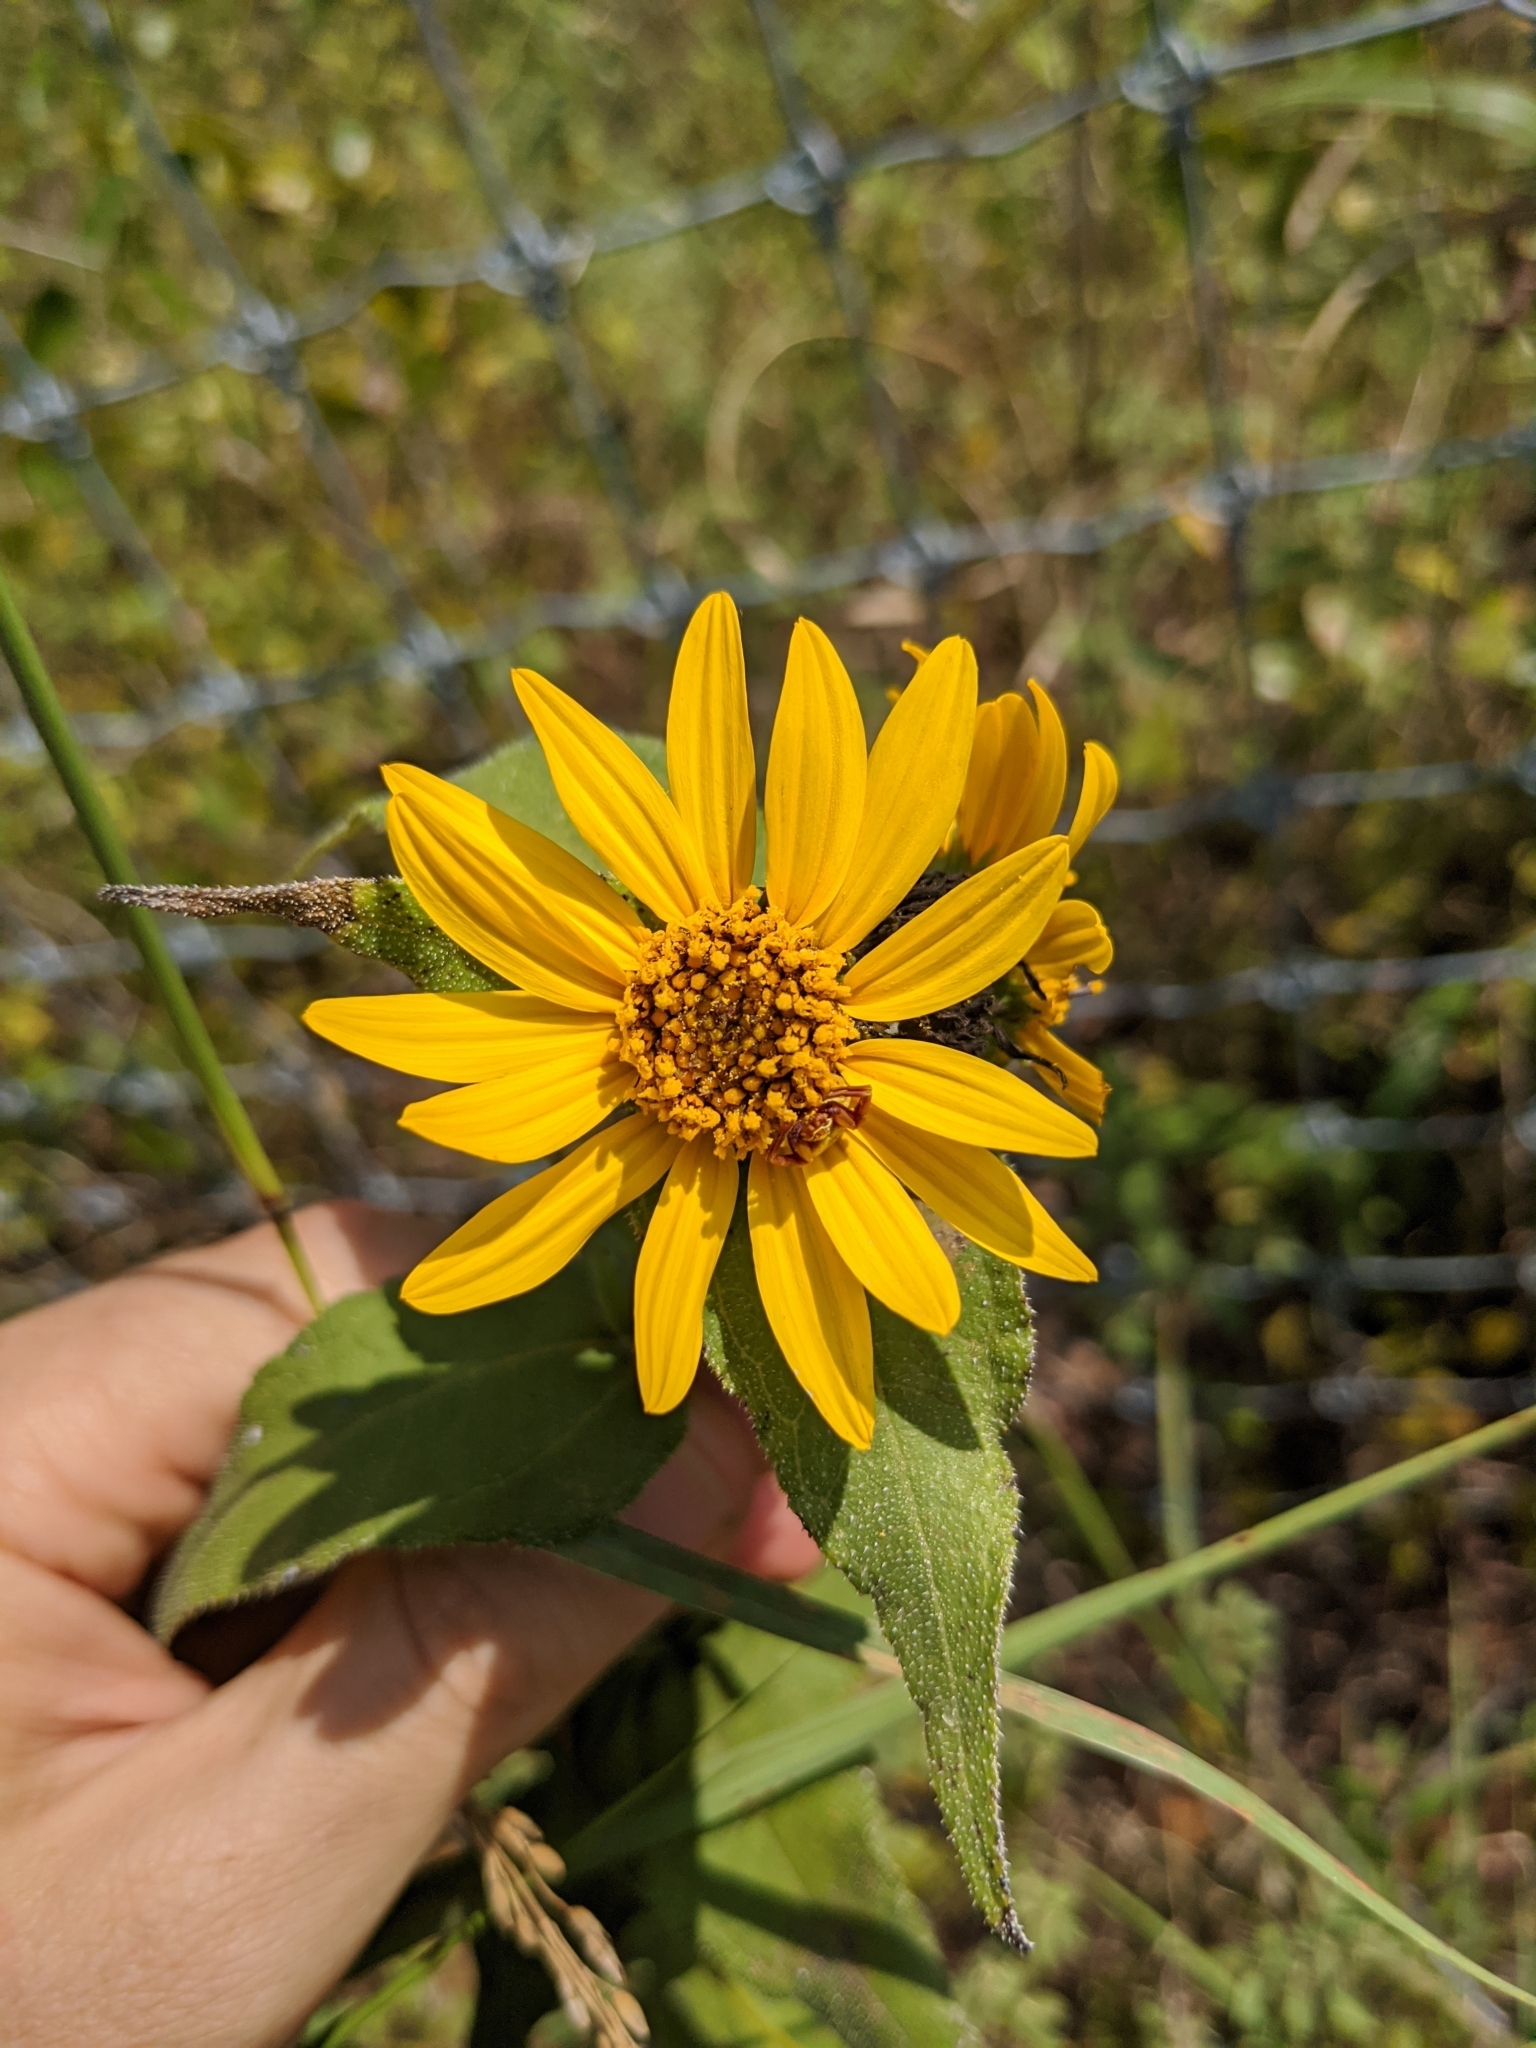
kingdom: Plantae
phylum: Tracheophyta
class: Magnoliopsida
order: Asterales
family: Asteraceae
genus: Helianthus
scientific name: Helianthus hirsutus
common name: Hairy sunflower
